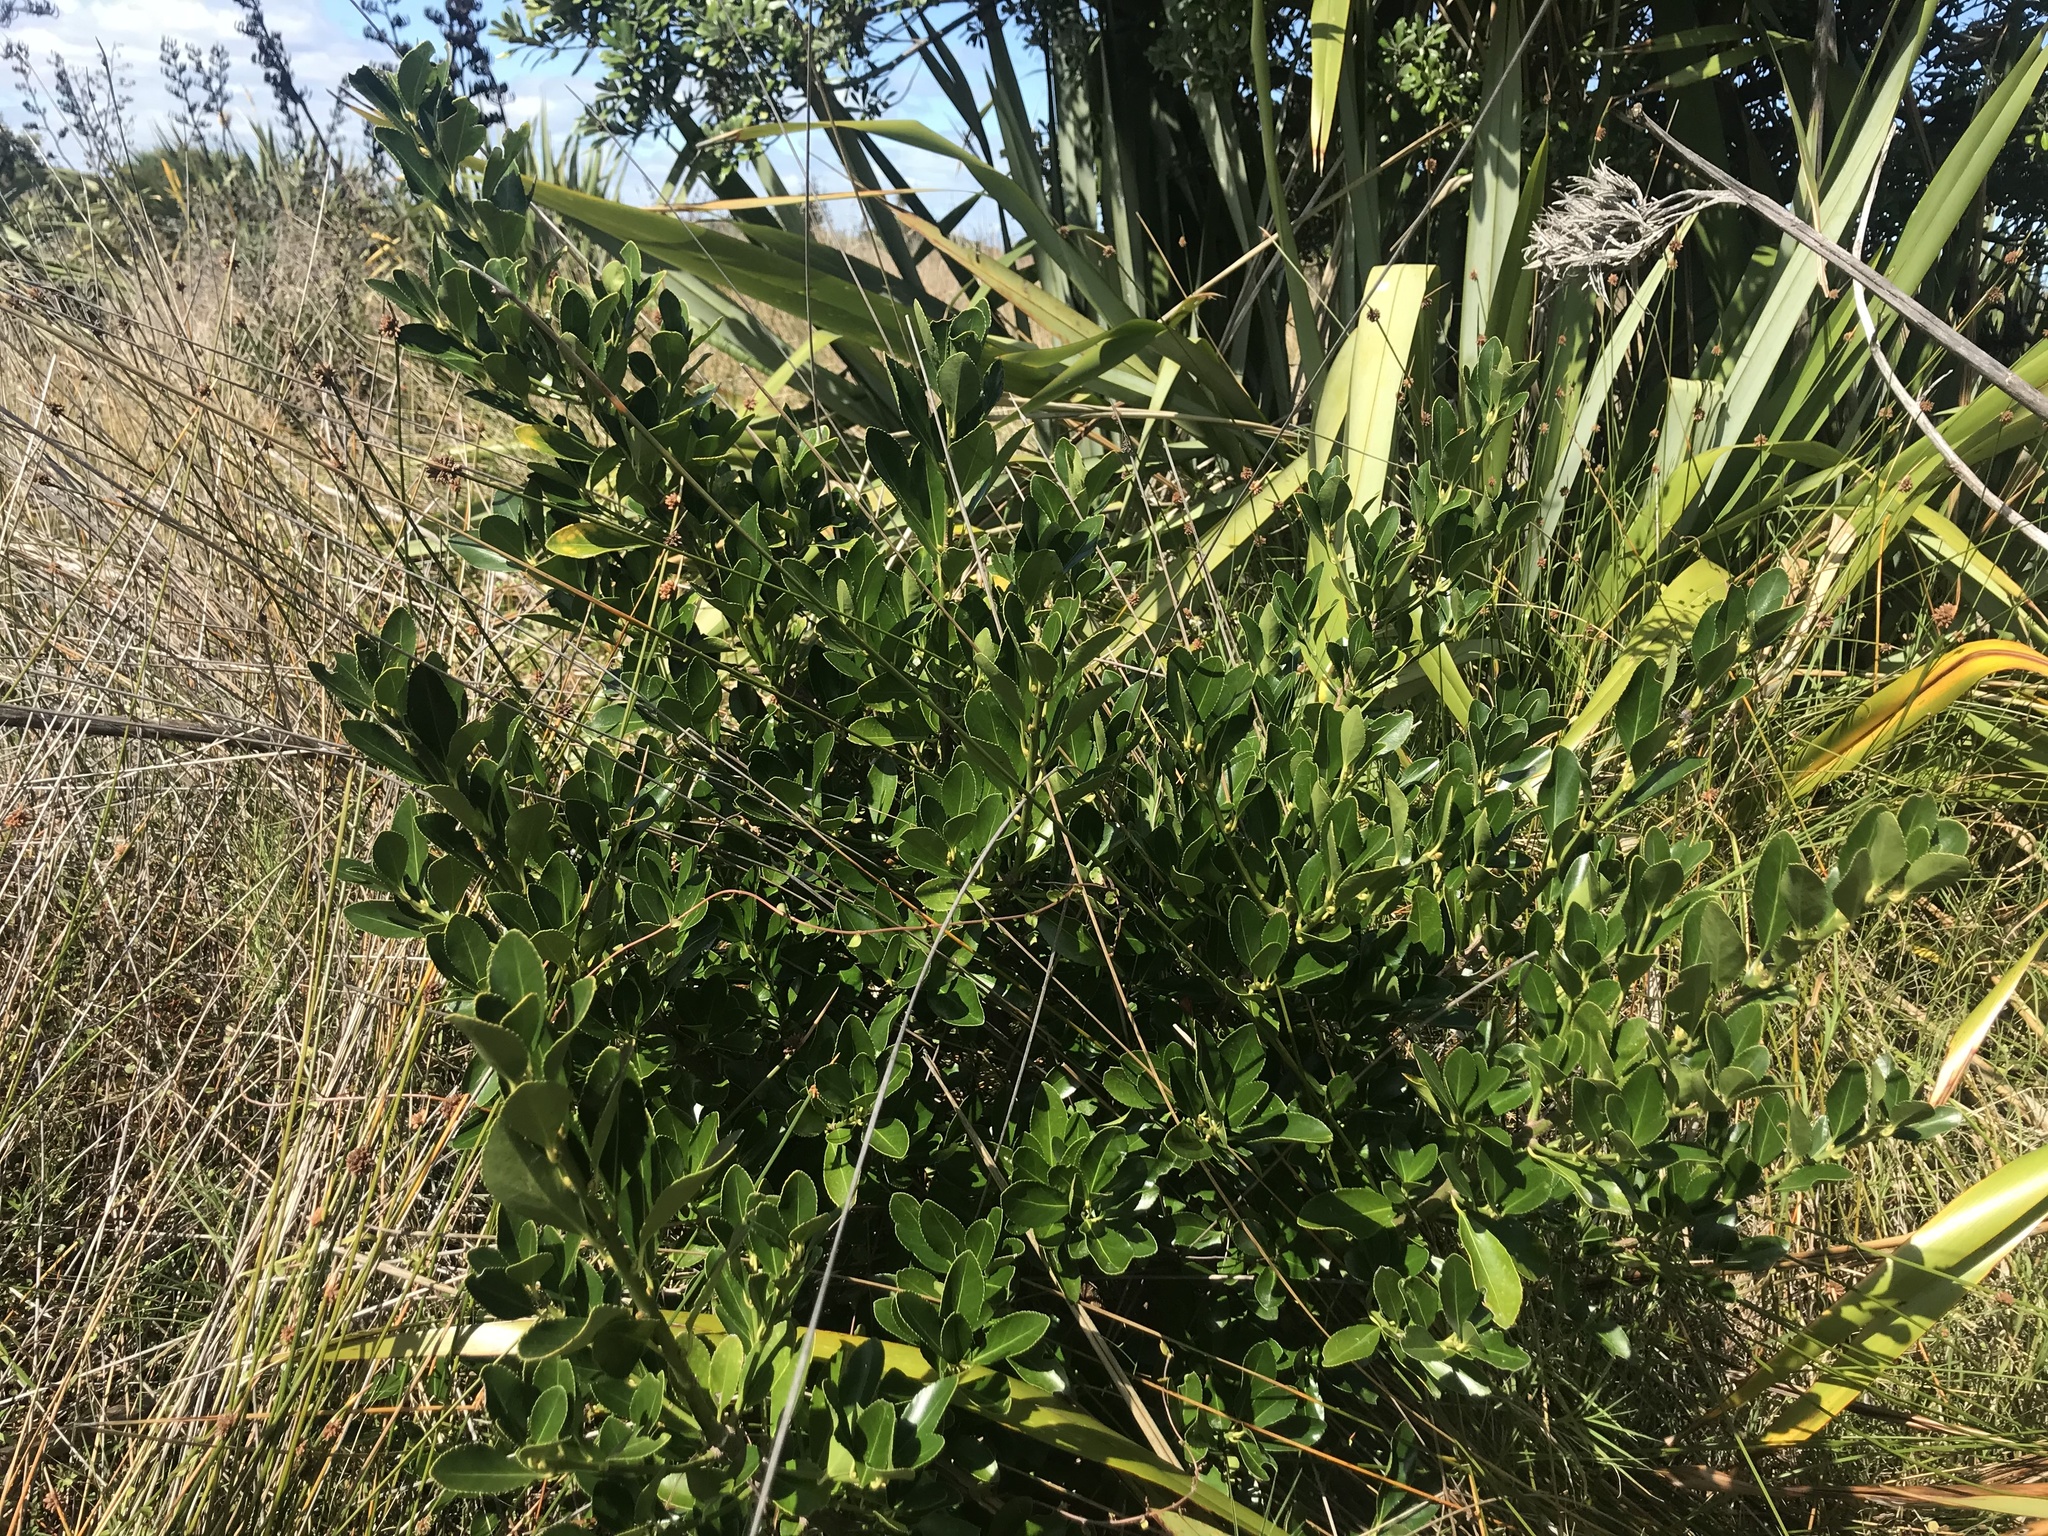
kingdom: Plantae
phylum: Tracheophyta
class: Magnoliopsida
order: Celastrales
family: Celastraceae
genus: Euonymus
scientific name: Euonymus japonicus
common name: Japanese spindletree
